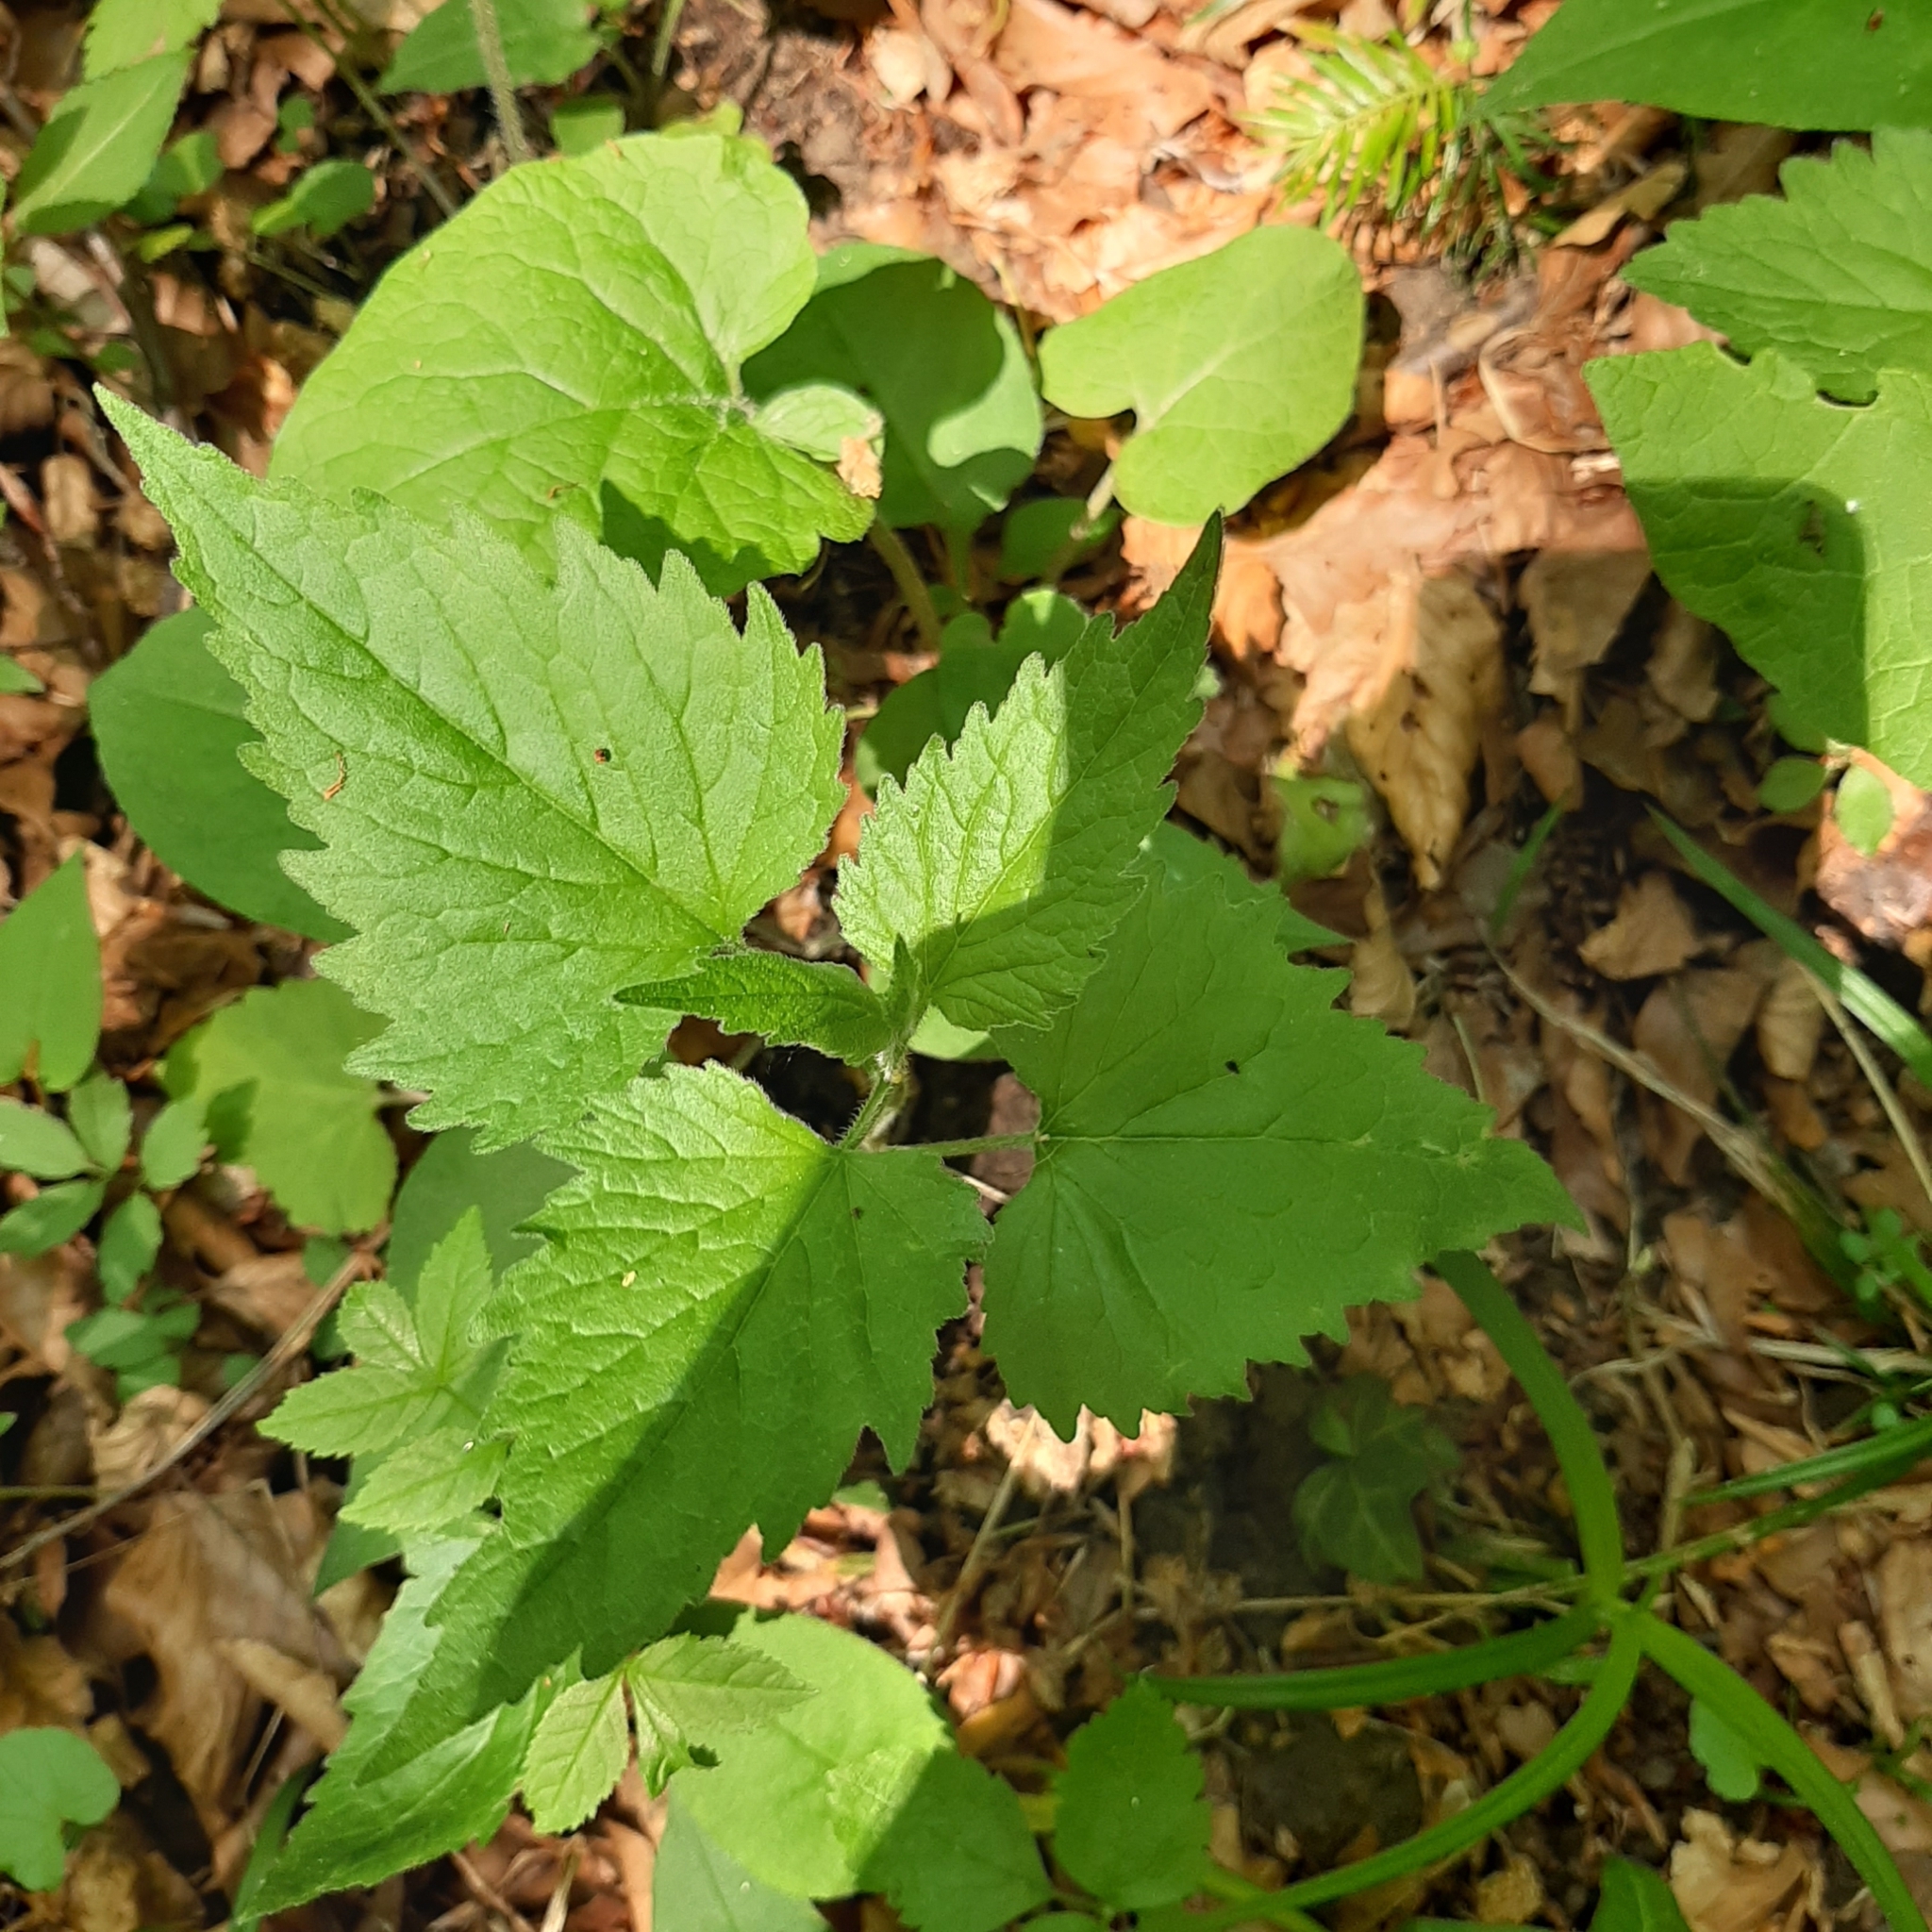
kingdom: Plantae
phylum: Tracheophyta
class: Magnoliopsida
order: Asterales
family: Campanulaceae
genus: Campanula
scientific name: Campanula trachelium
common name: Nettle-leaved bellflower
